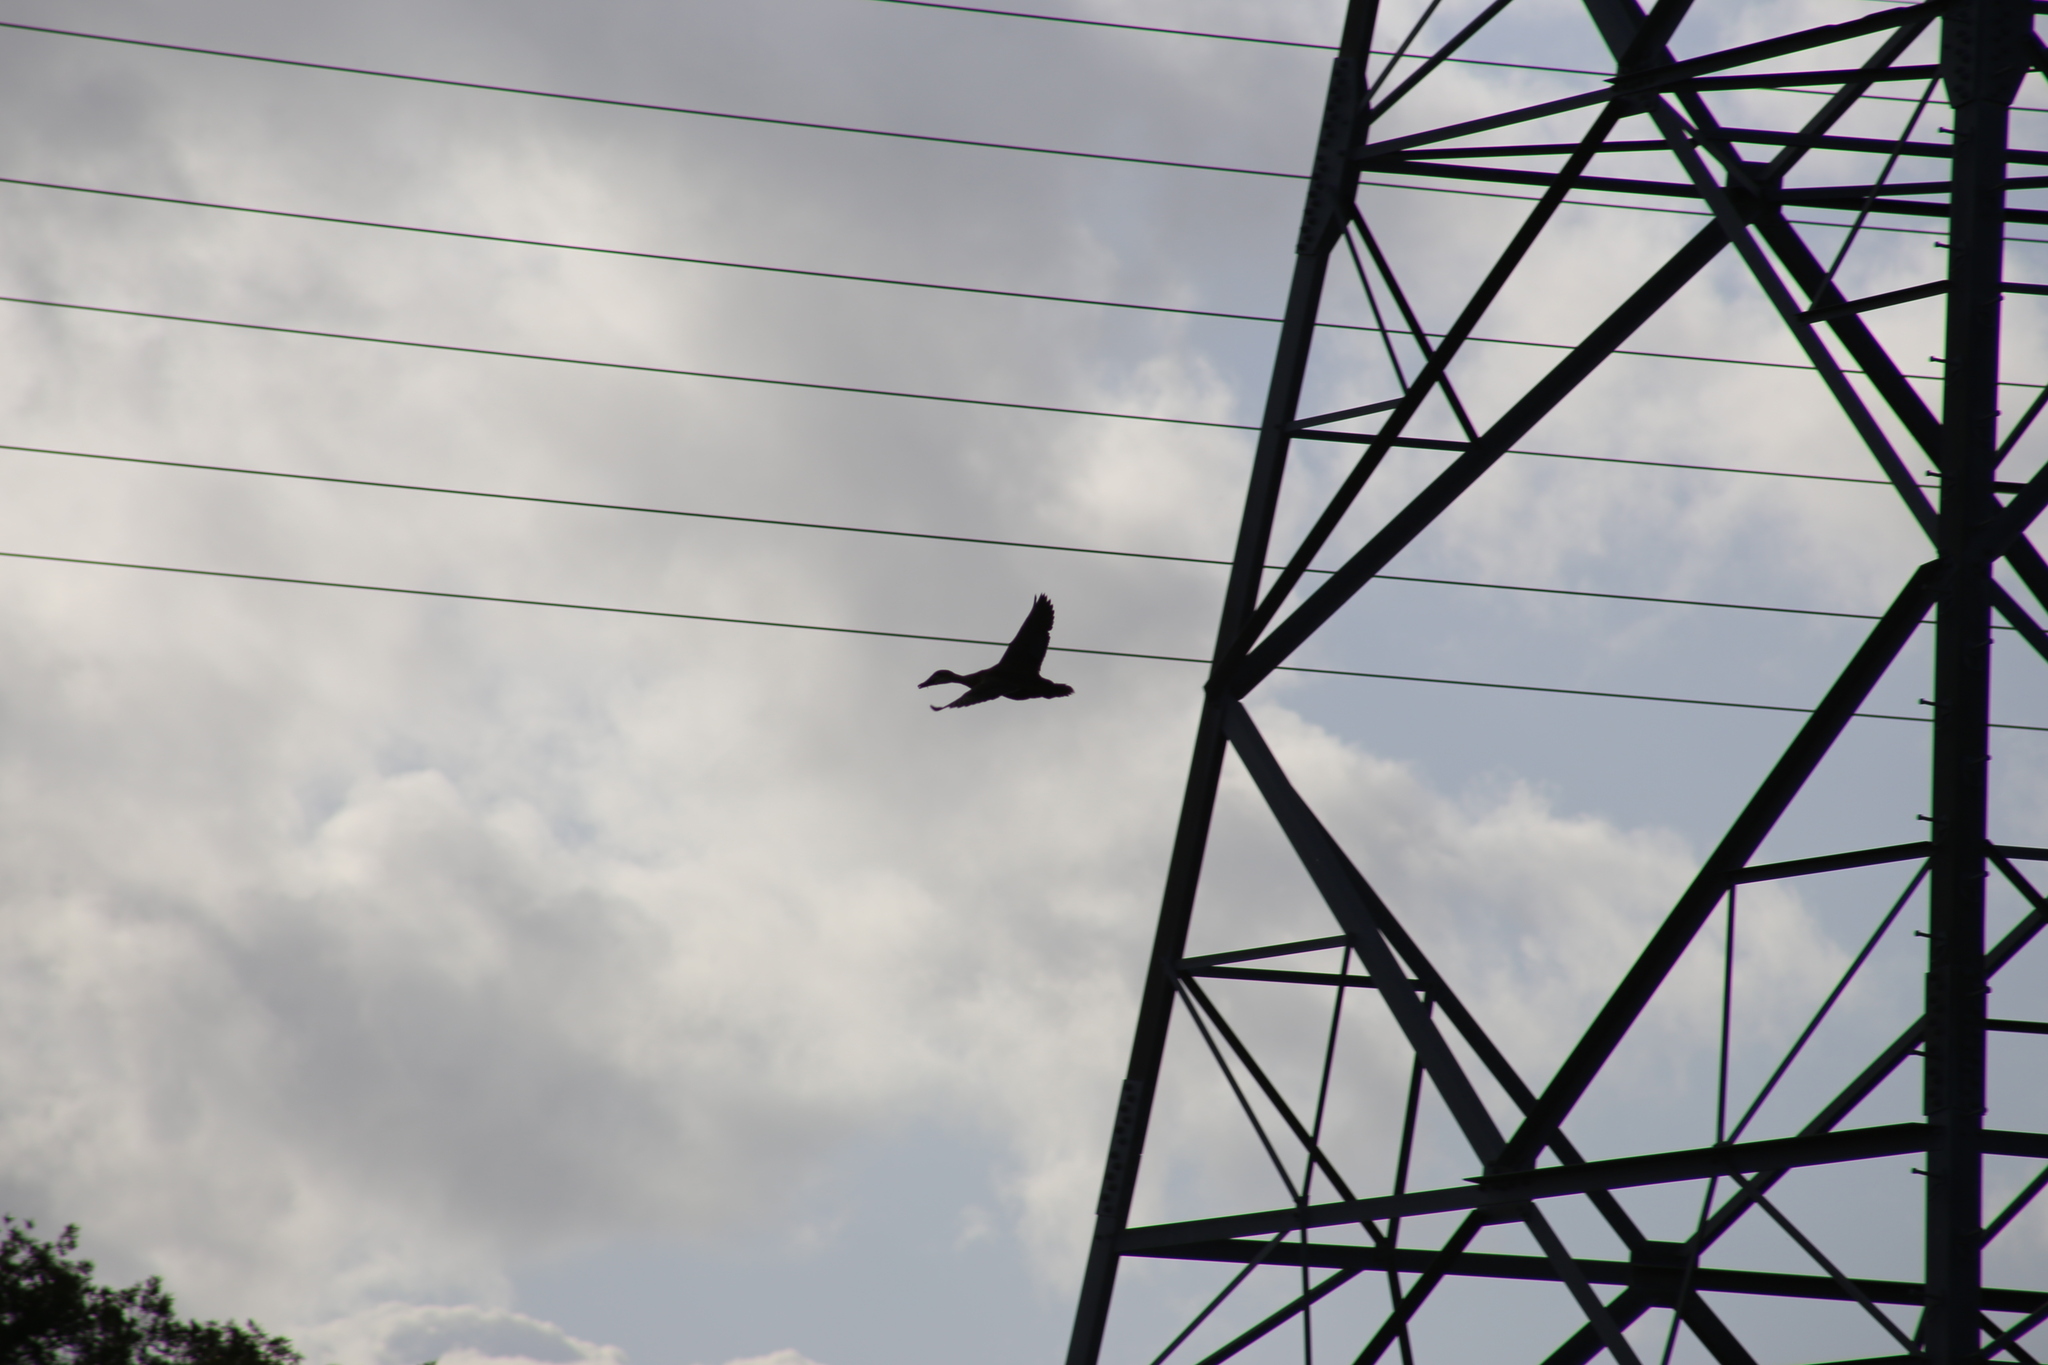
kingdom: Animalia
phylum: Chordata
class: Aves
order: Anseriformes
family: Anatidae
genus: Anas
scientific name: Anas superciliosa
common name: Pacific black duck
